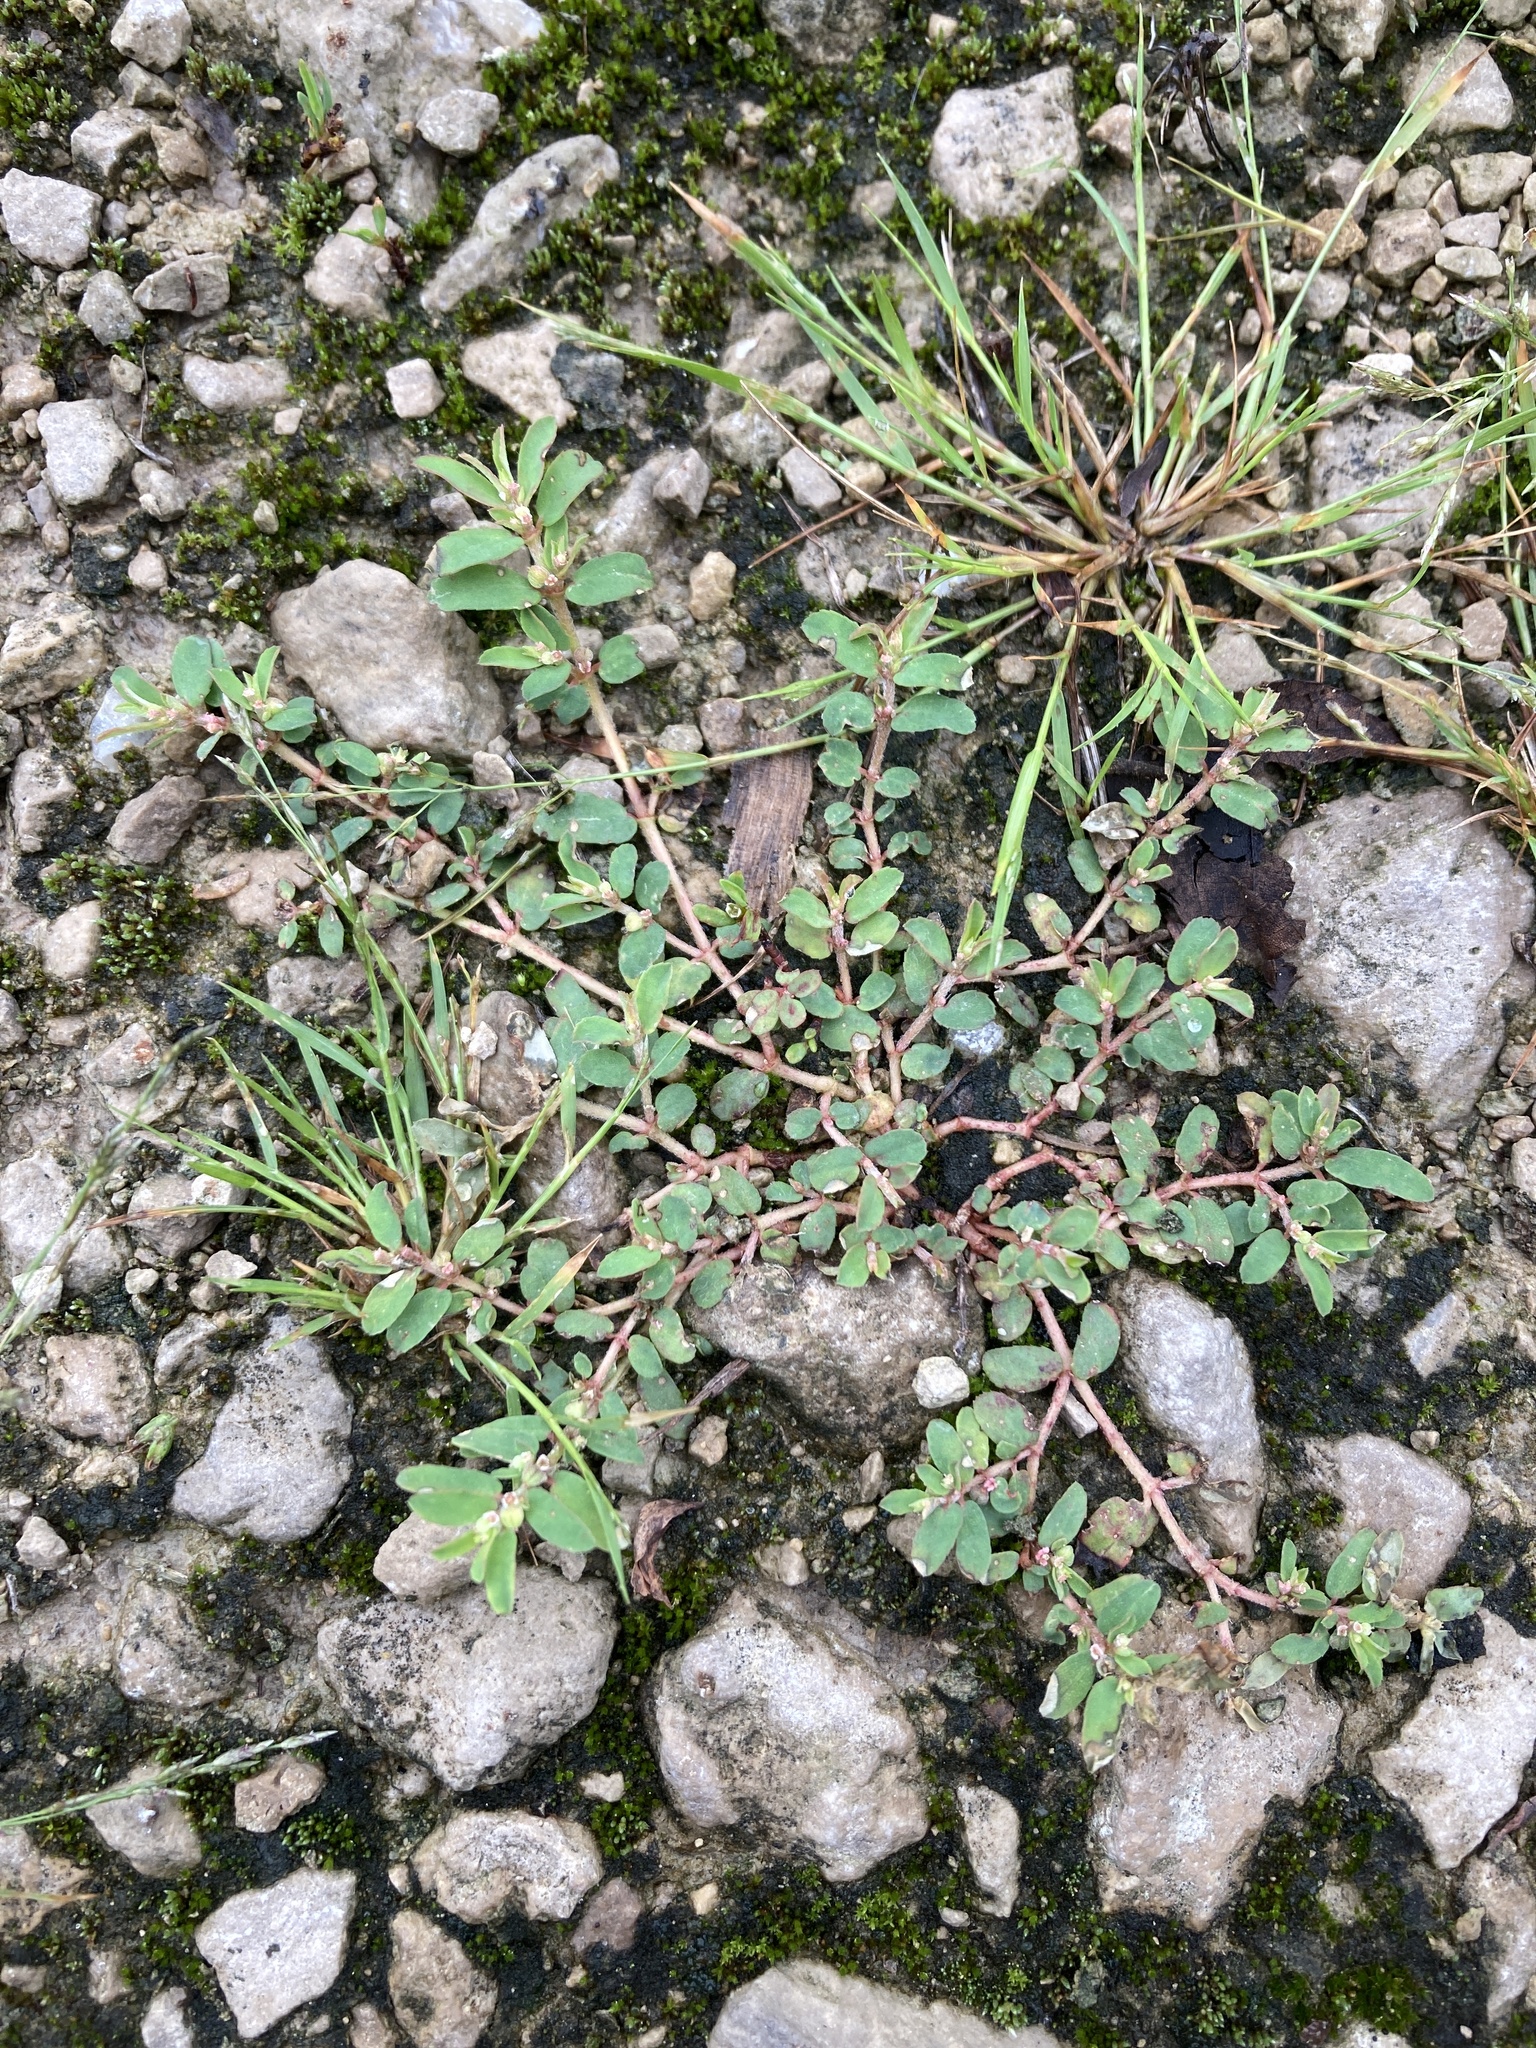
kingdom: Plantae
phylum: Tracheophyta
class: Magnoliopsida
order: Malpighiales
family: Euphorbiaceae
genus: Euphorbia
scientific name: Euphorbia maculata
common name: Spotted spurge
